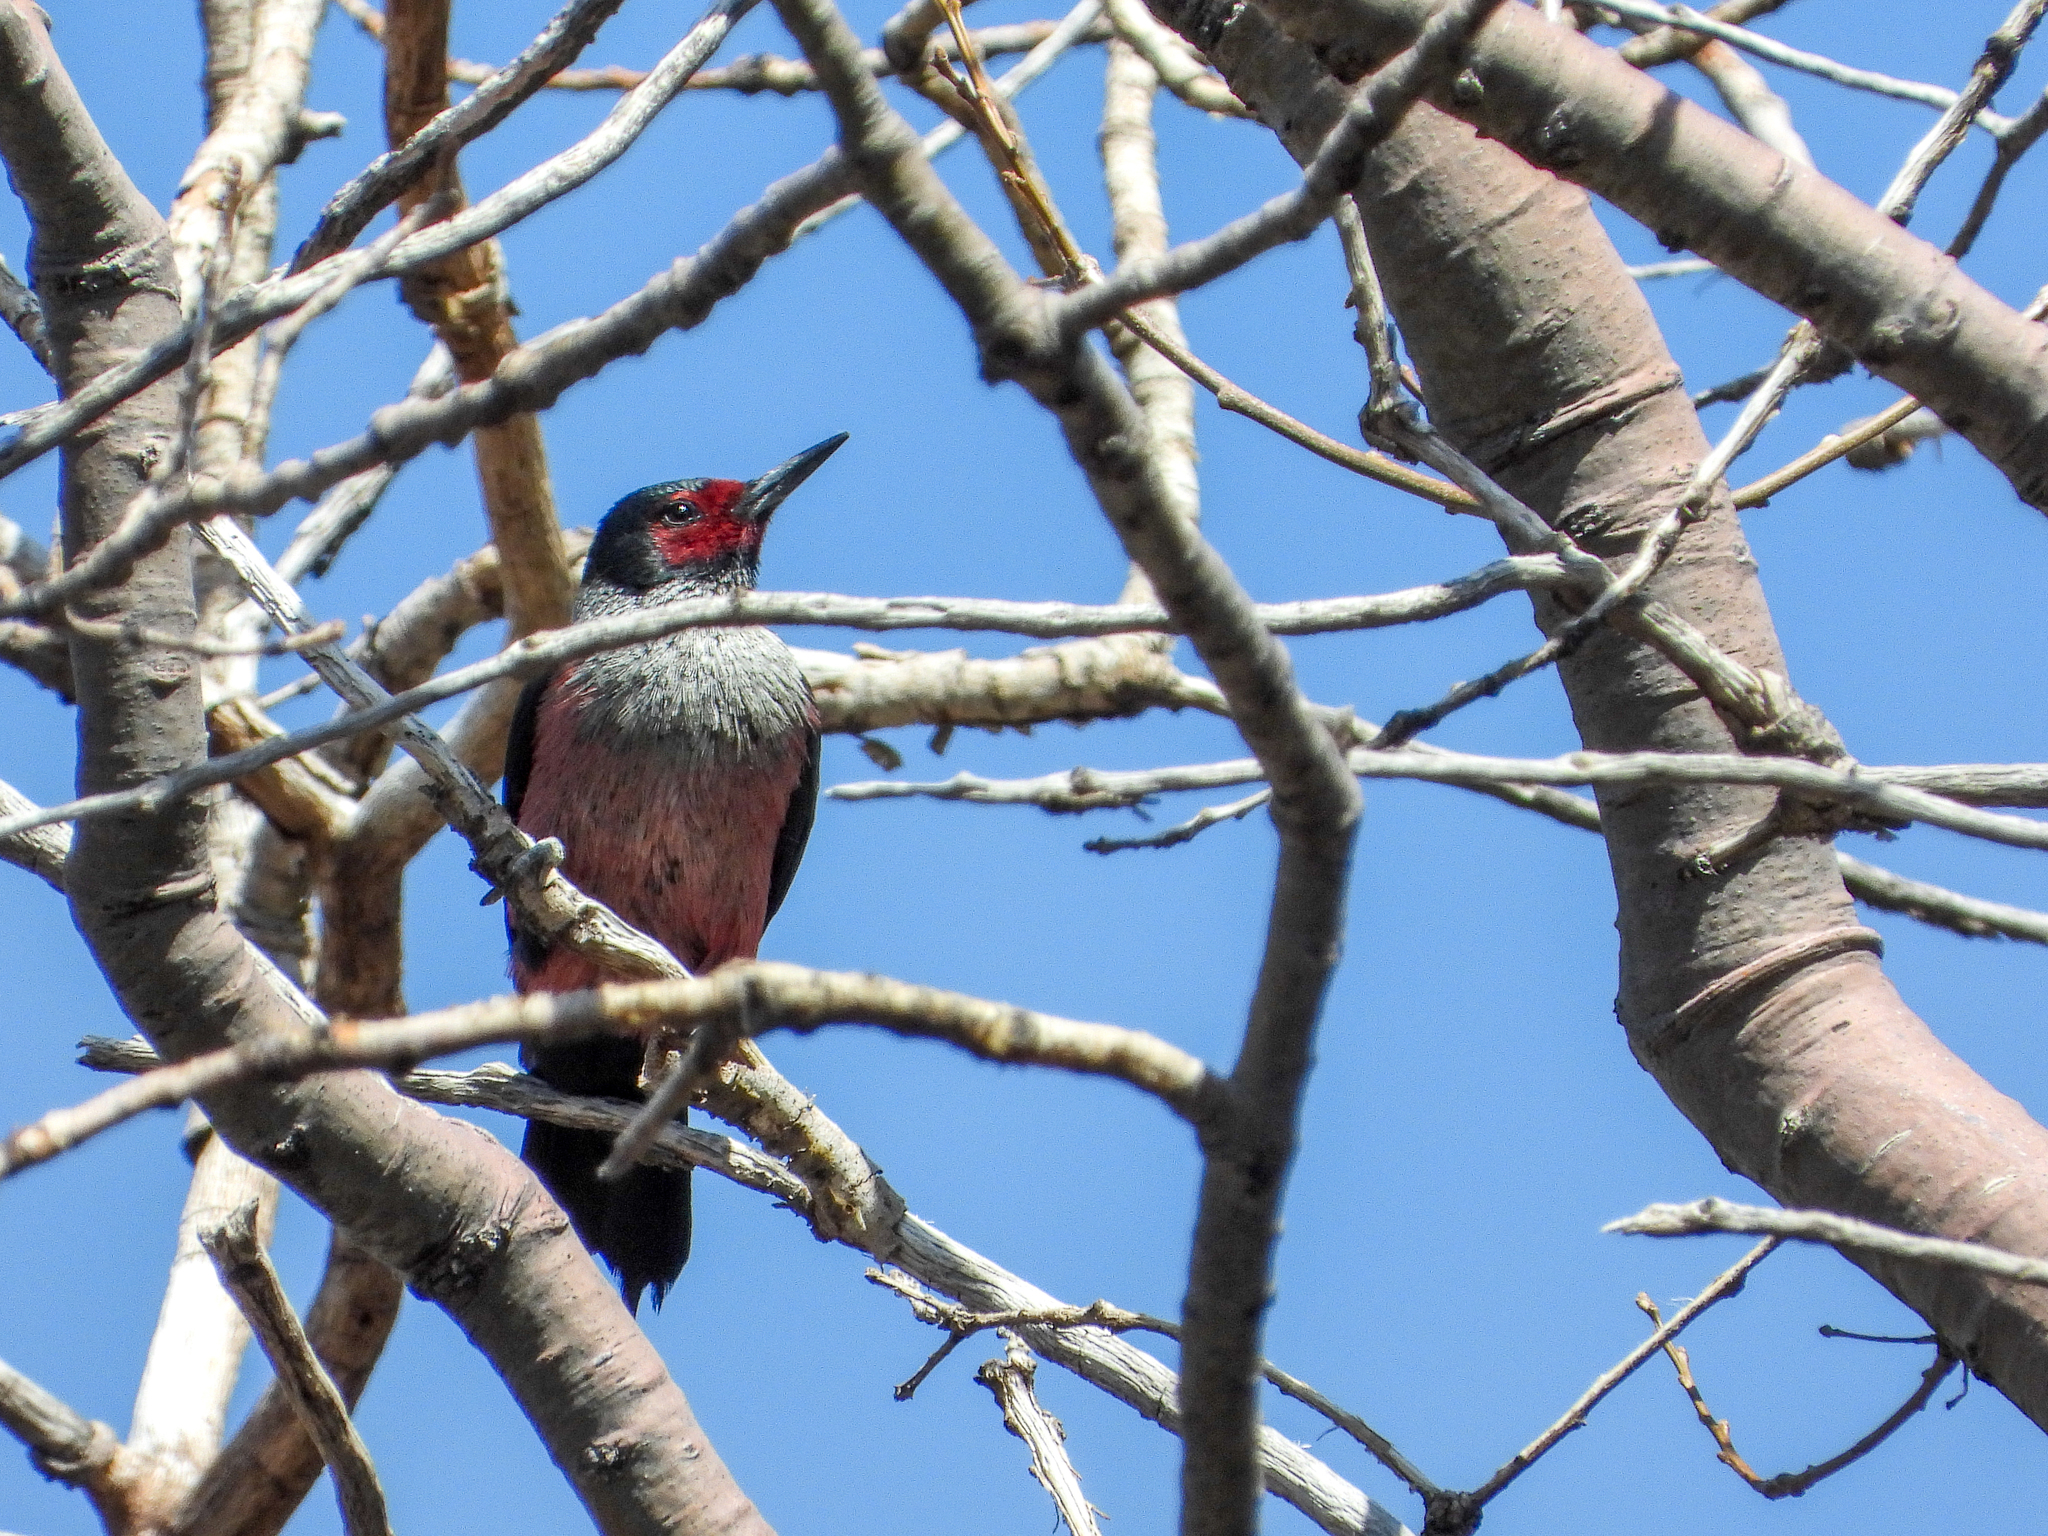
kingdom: Animalia
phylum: Chordata
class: Aves
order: Piciformes
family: Picidae
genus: Melanerpes
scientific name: Melanerpes lewis
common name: Lewis's woodpecker
